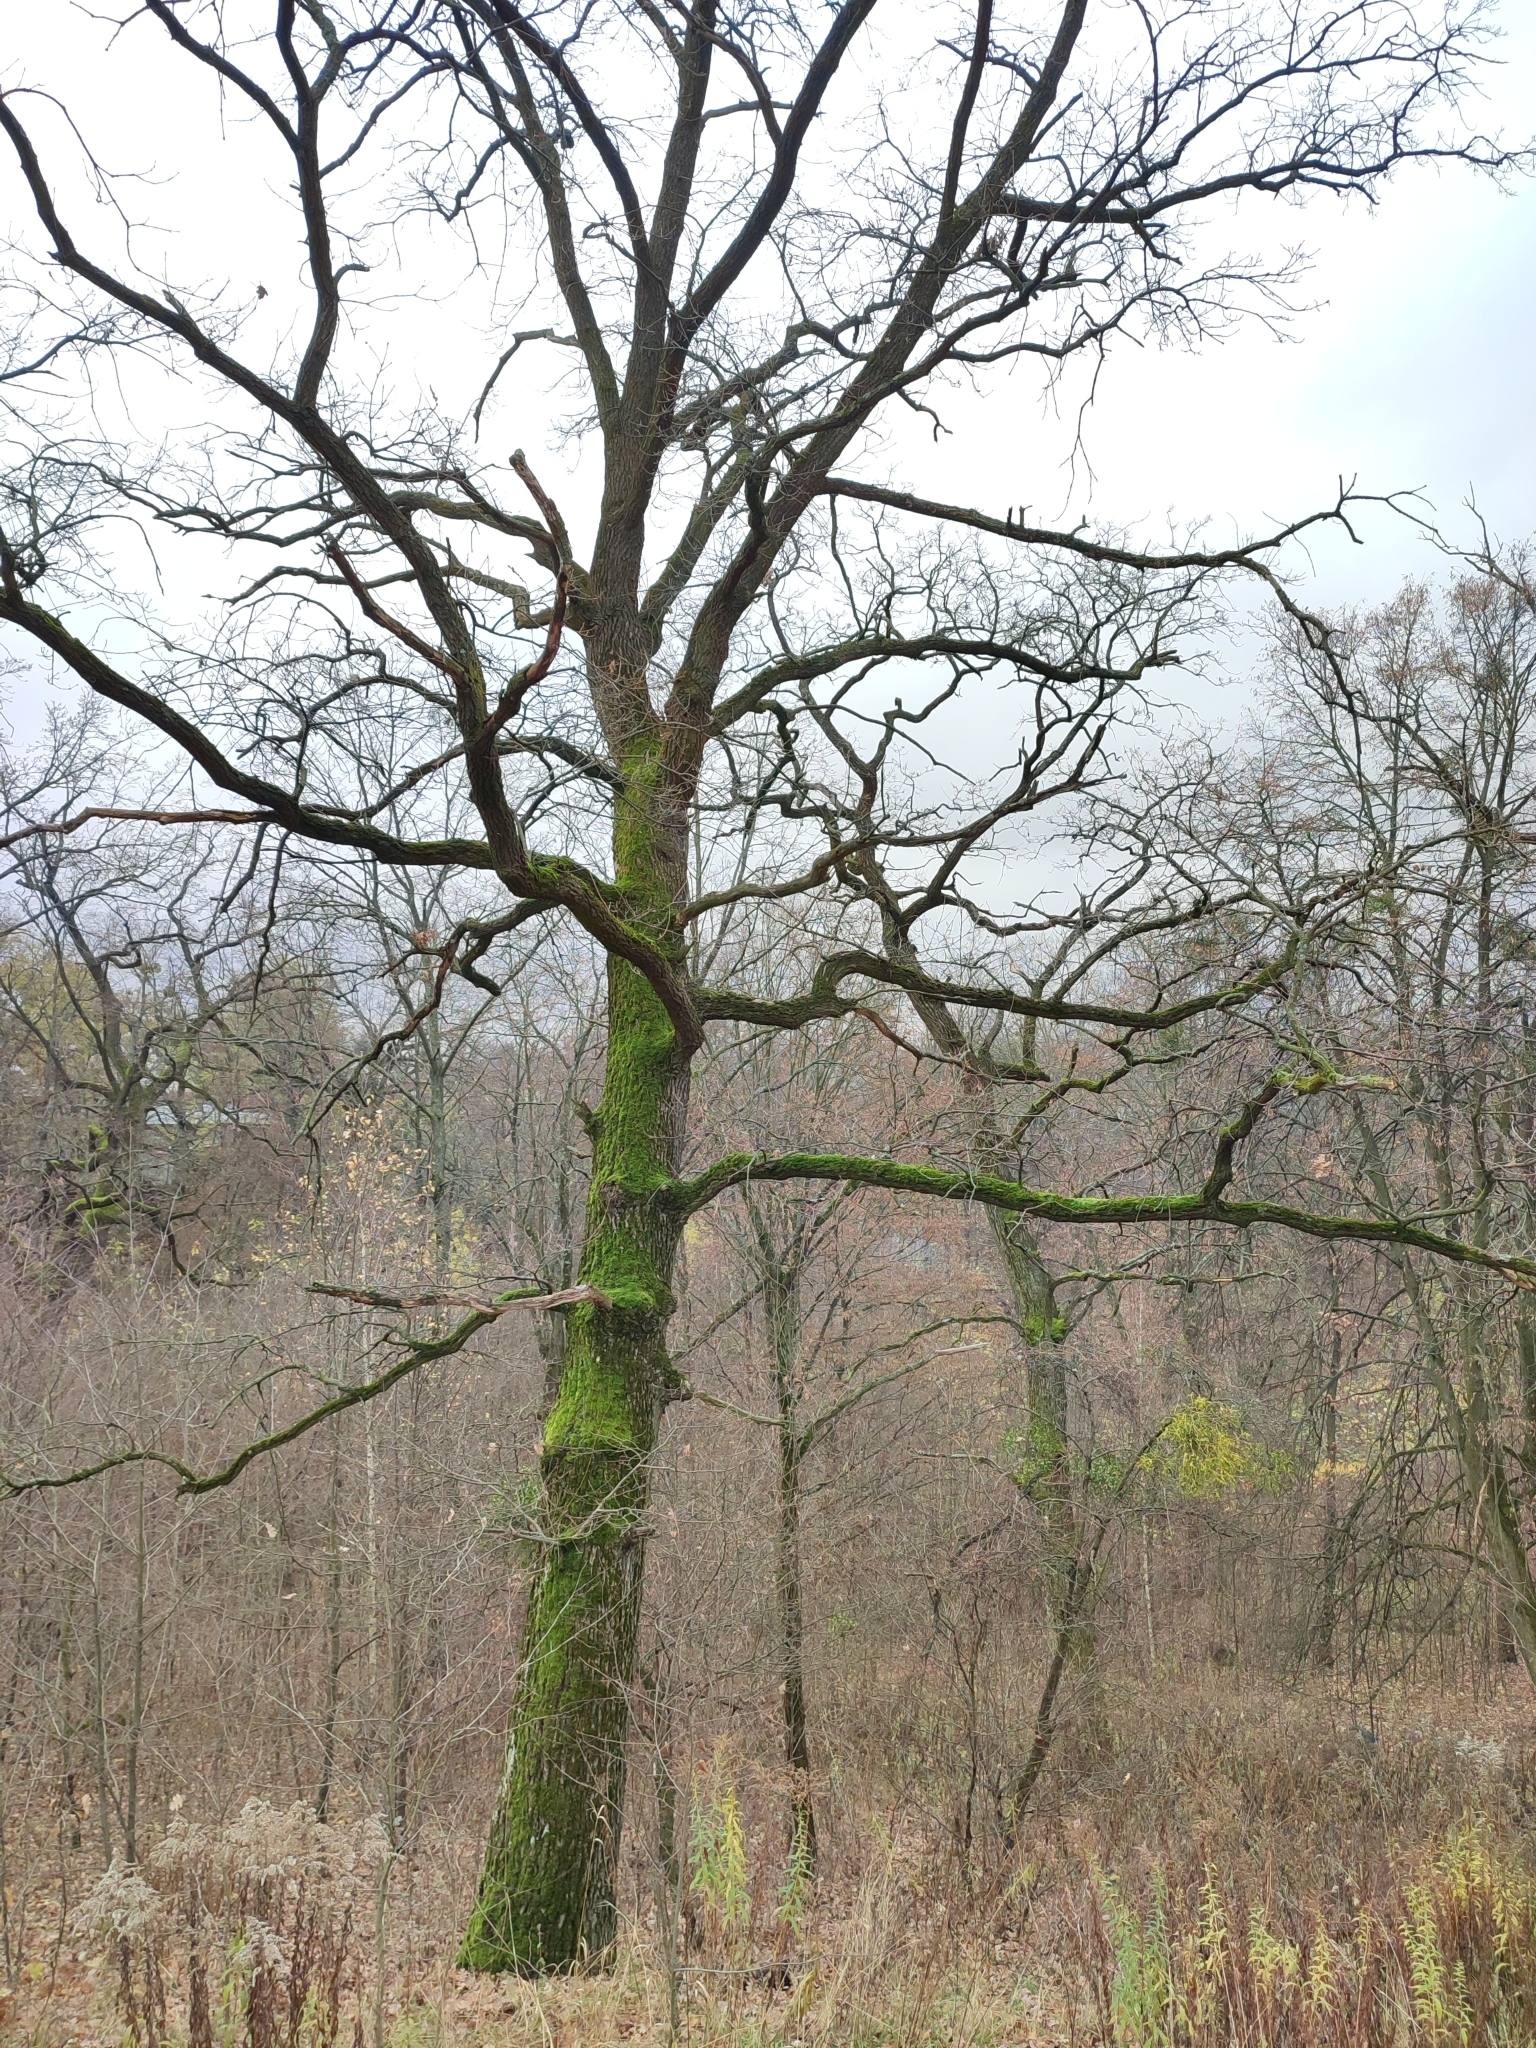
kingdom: Plantae
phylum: Tracheophyta
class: Magnoliopsida
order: Fagales
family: Fagaceae
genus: Quercus
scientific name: Quercus robur
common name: Pedunculate oak
